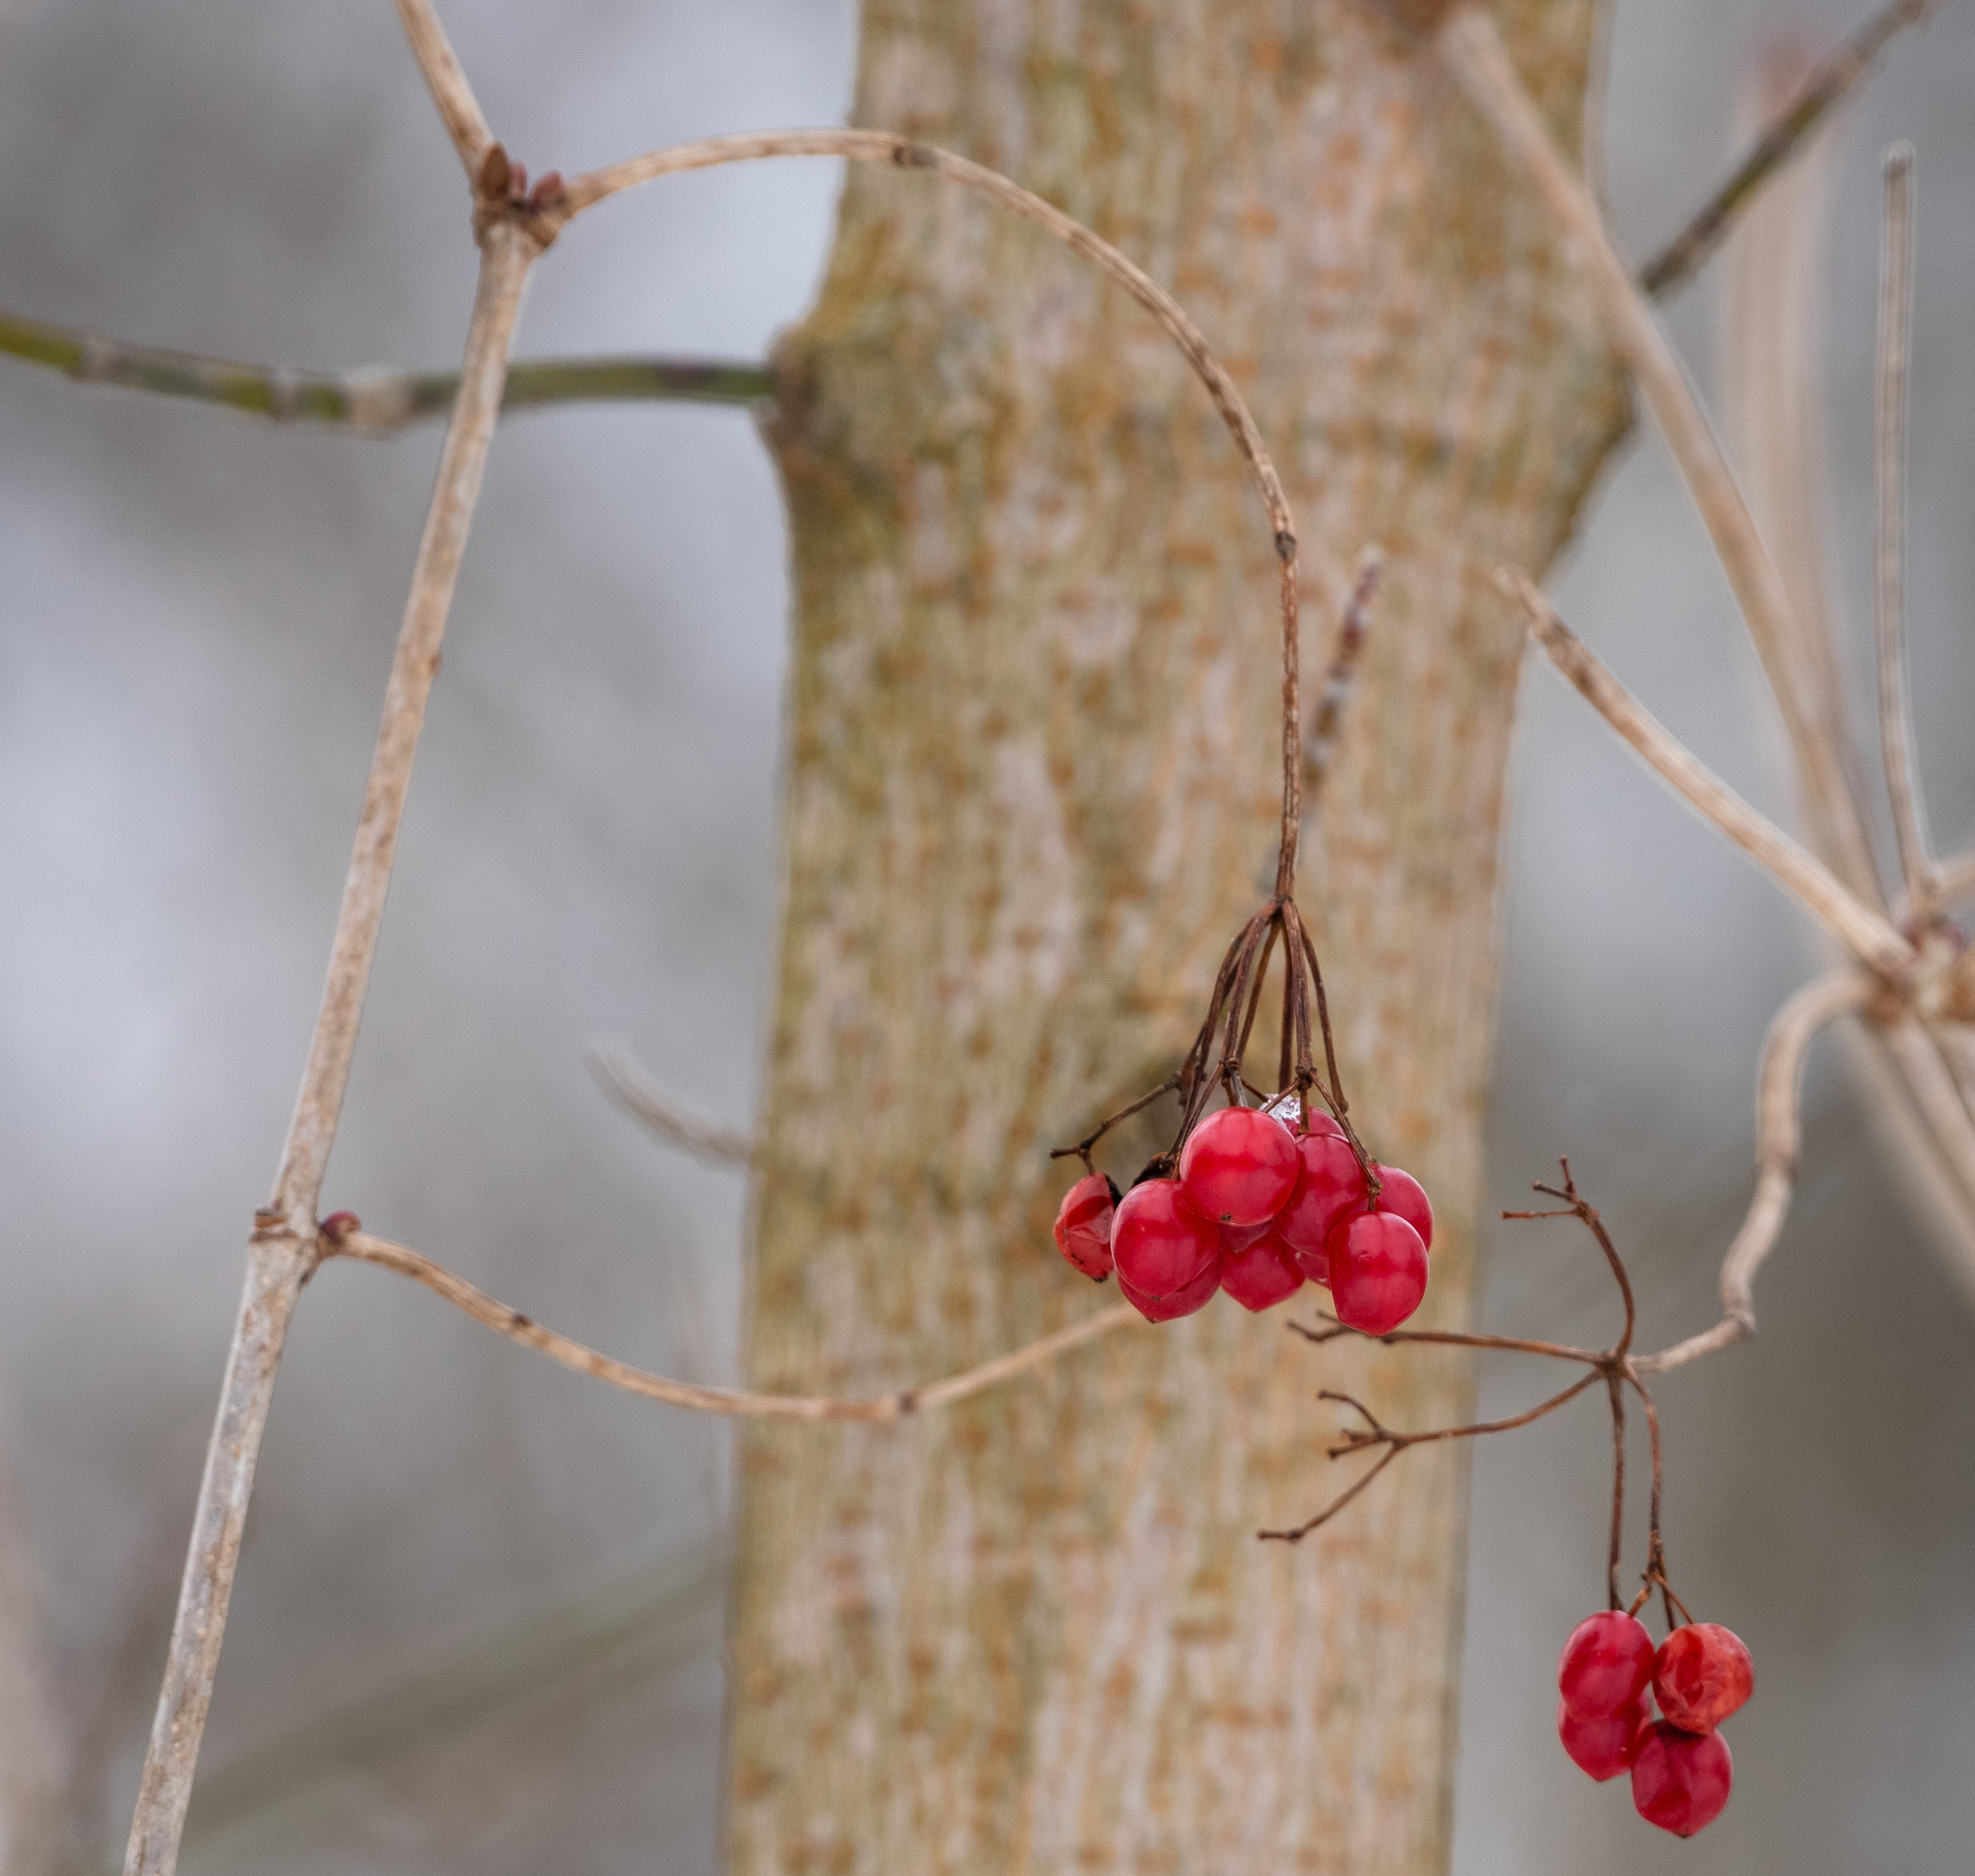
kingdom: Plantae
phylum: Tracheophyta
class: Magnoliopsida
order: Dipsacales
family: Viburnaceae
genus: Viburnum
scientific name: Viburnum opulus
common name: Guelder-rose
